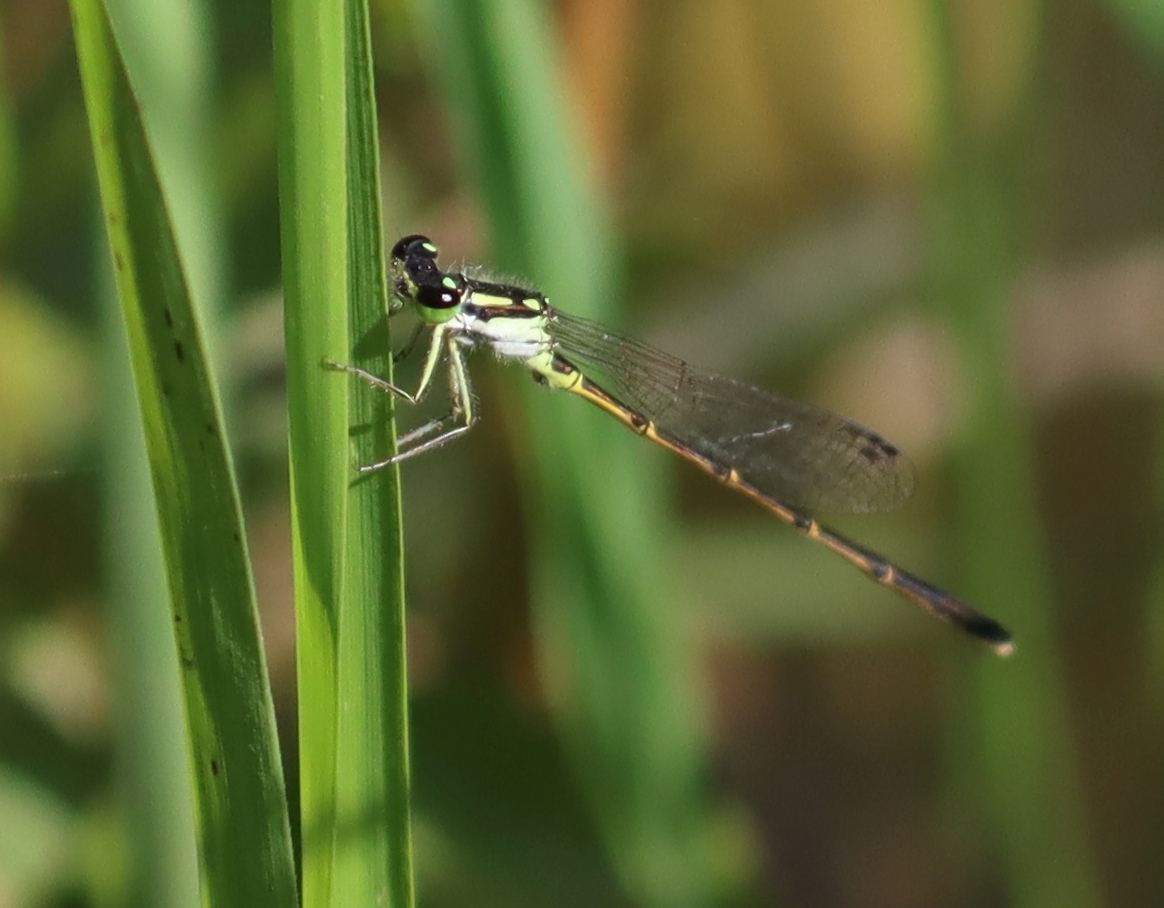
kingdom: Animalia
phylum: Arthropoda
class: Insecta
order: Odonata
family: Coenagrionidae
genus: Ischnura
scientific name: Ischnura posita
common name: Fragile forktail
